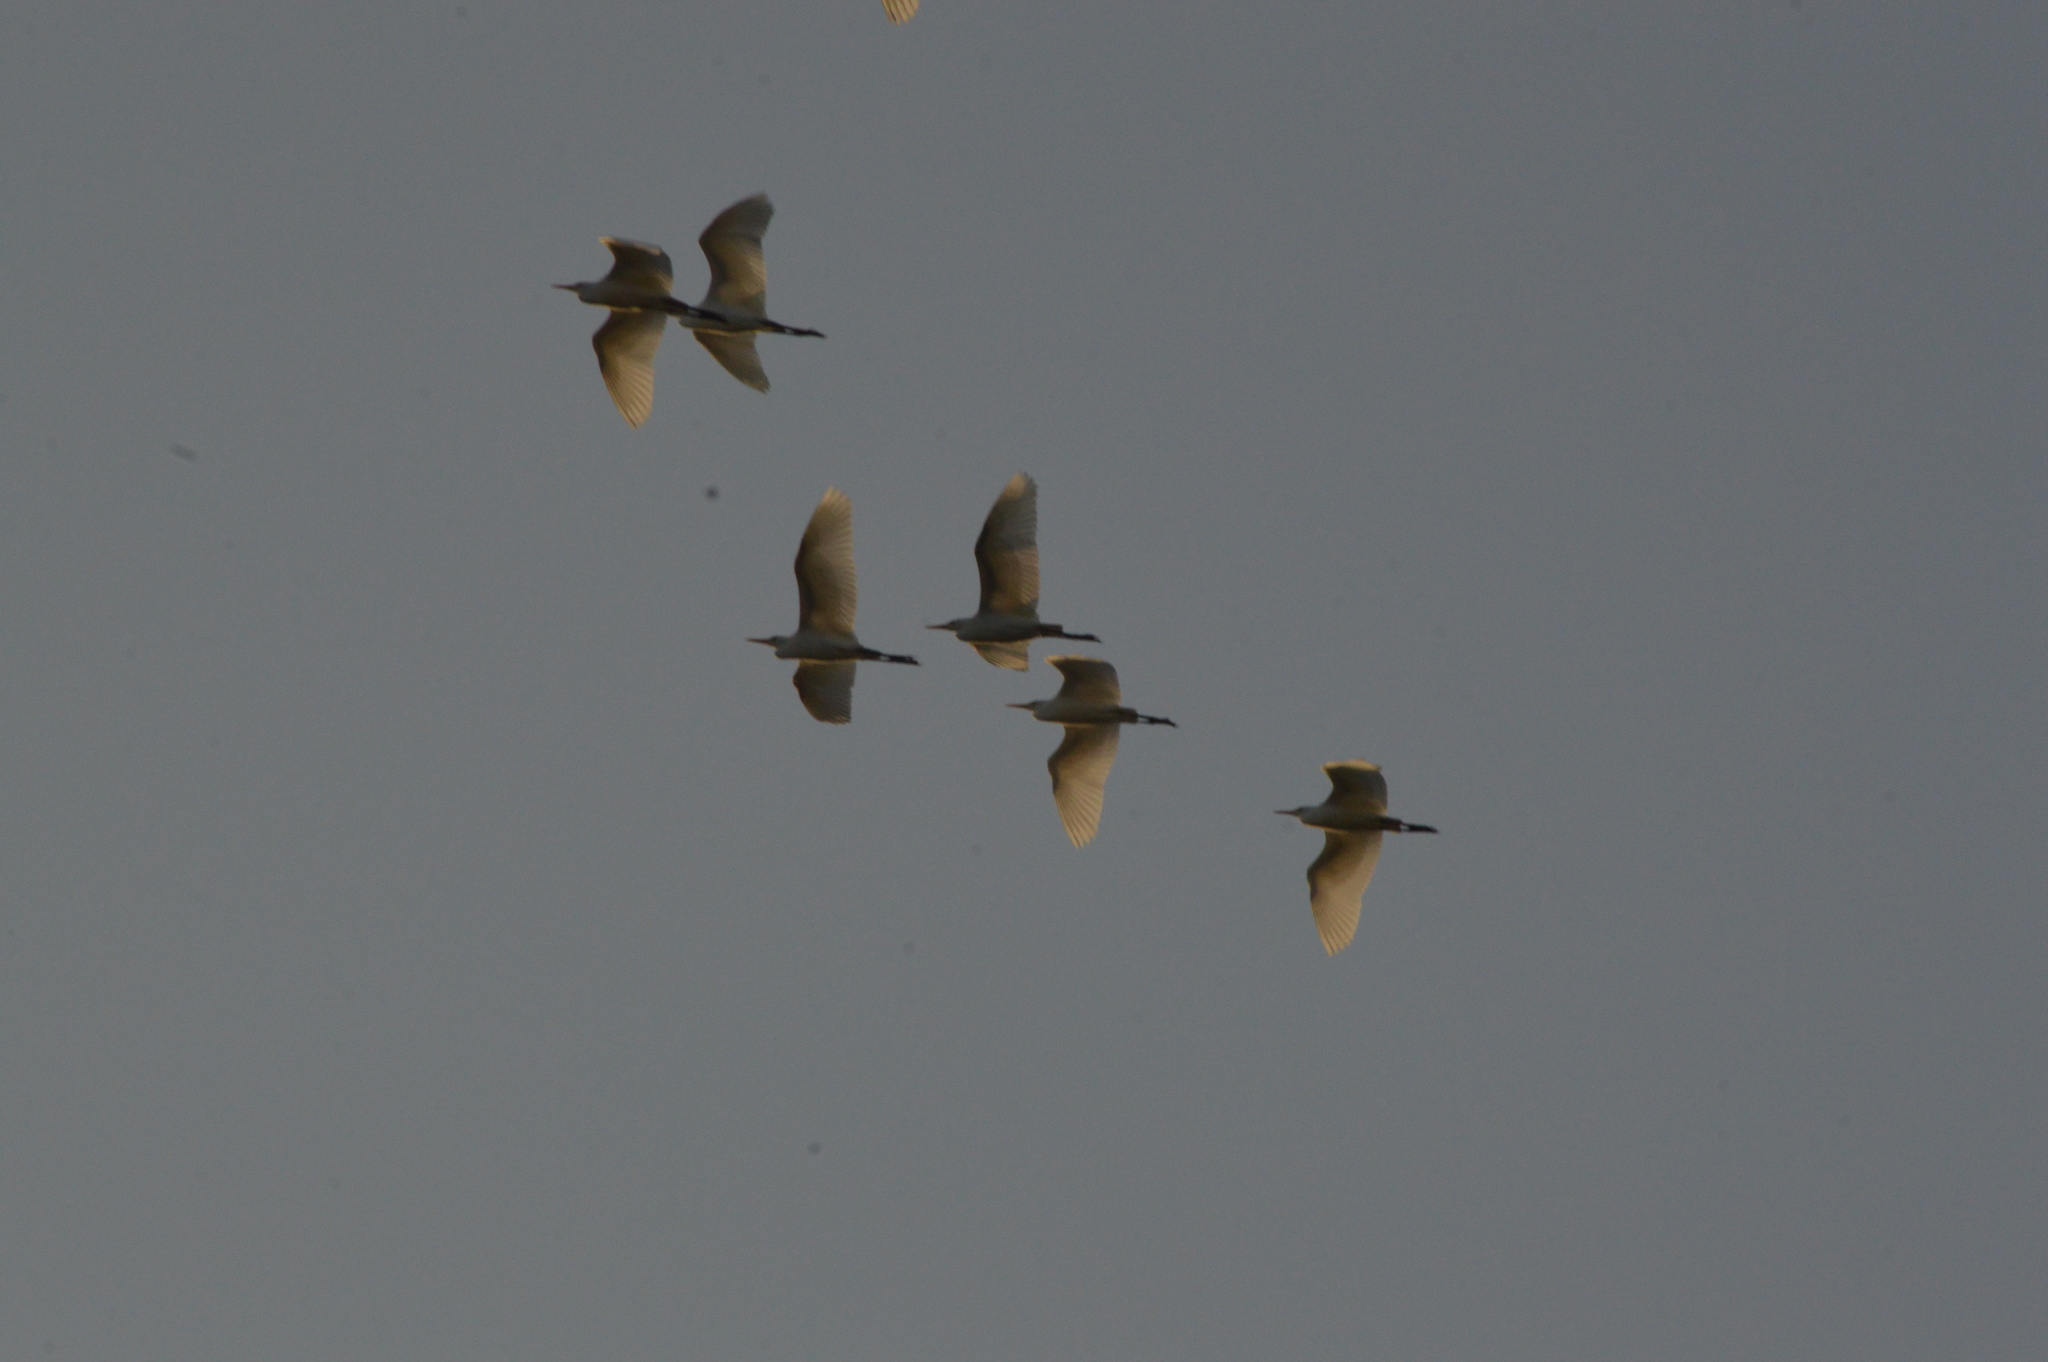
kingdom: Animalia
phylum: Chordata
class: Aves
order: Pelecaniformes
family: Ardeidae
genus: Bubulcus
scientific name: Bubulcus ibis
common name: Cattle egret
